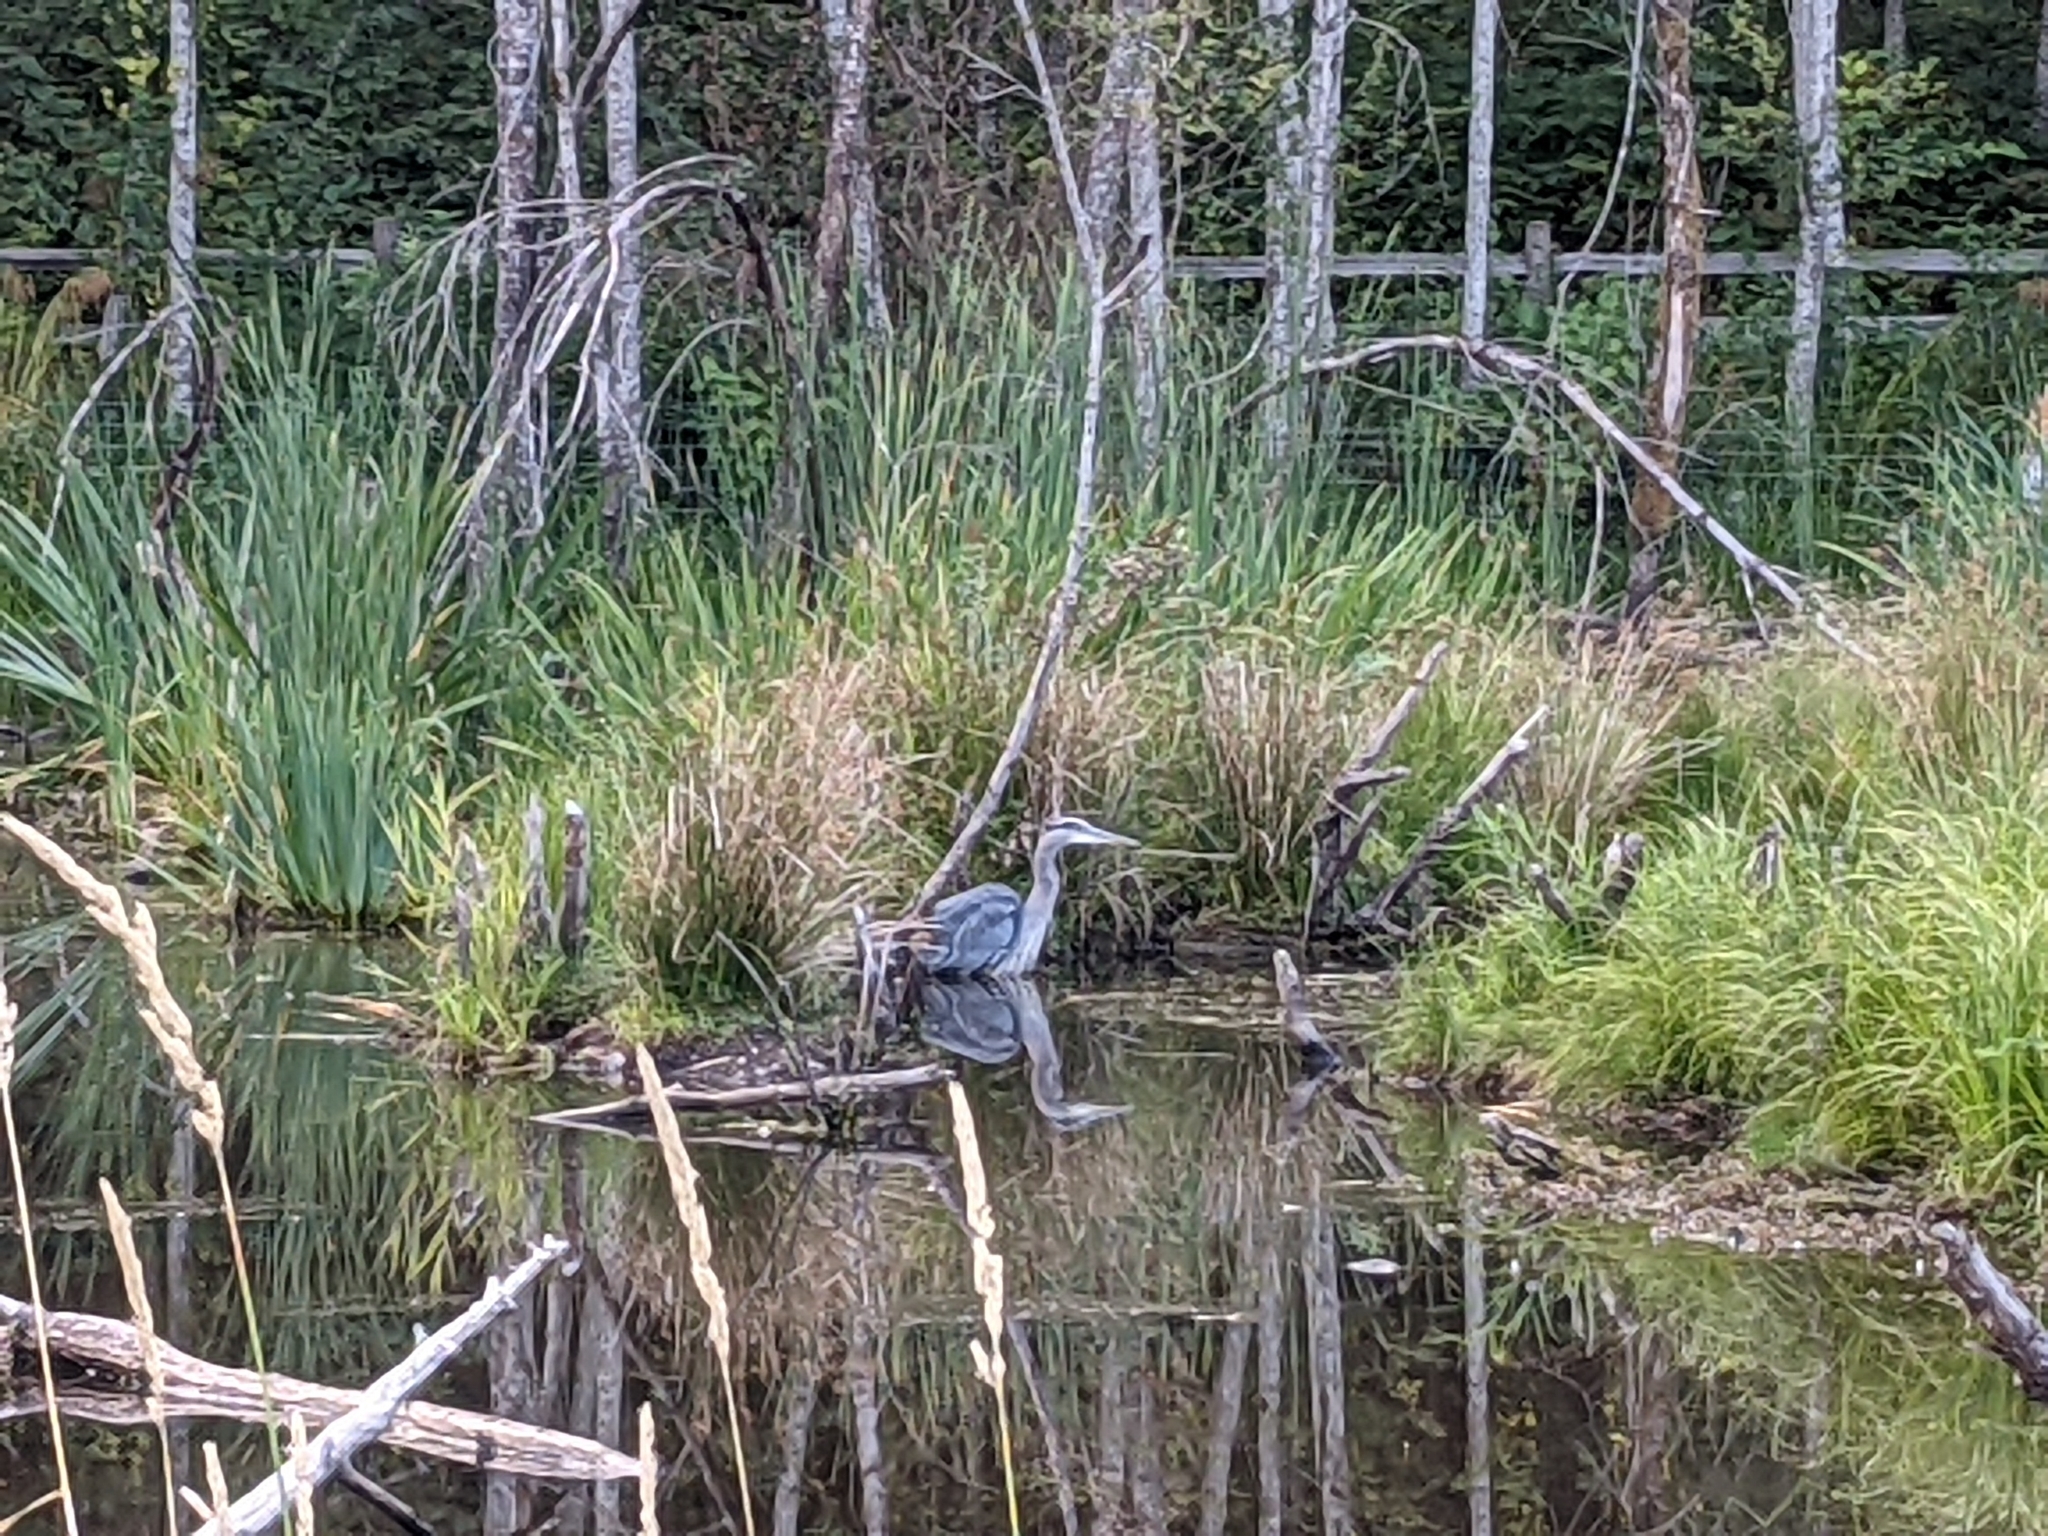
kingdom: Animalia
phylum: Chordata
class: Aves
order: Pelecaniformes
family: Ardeidae
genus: Ardea
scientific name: Ardea herodias
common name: Great blue heron
